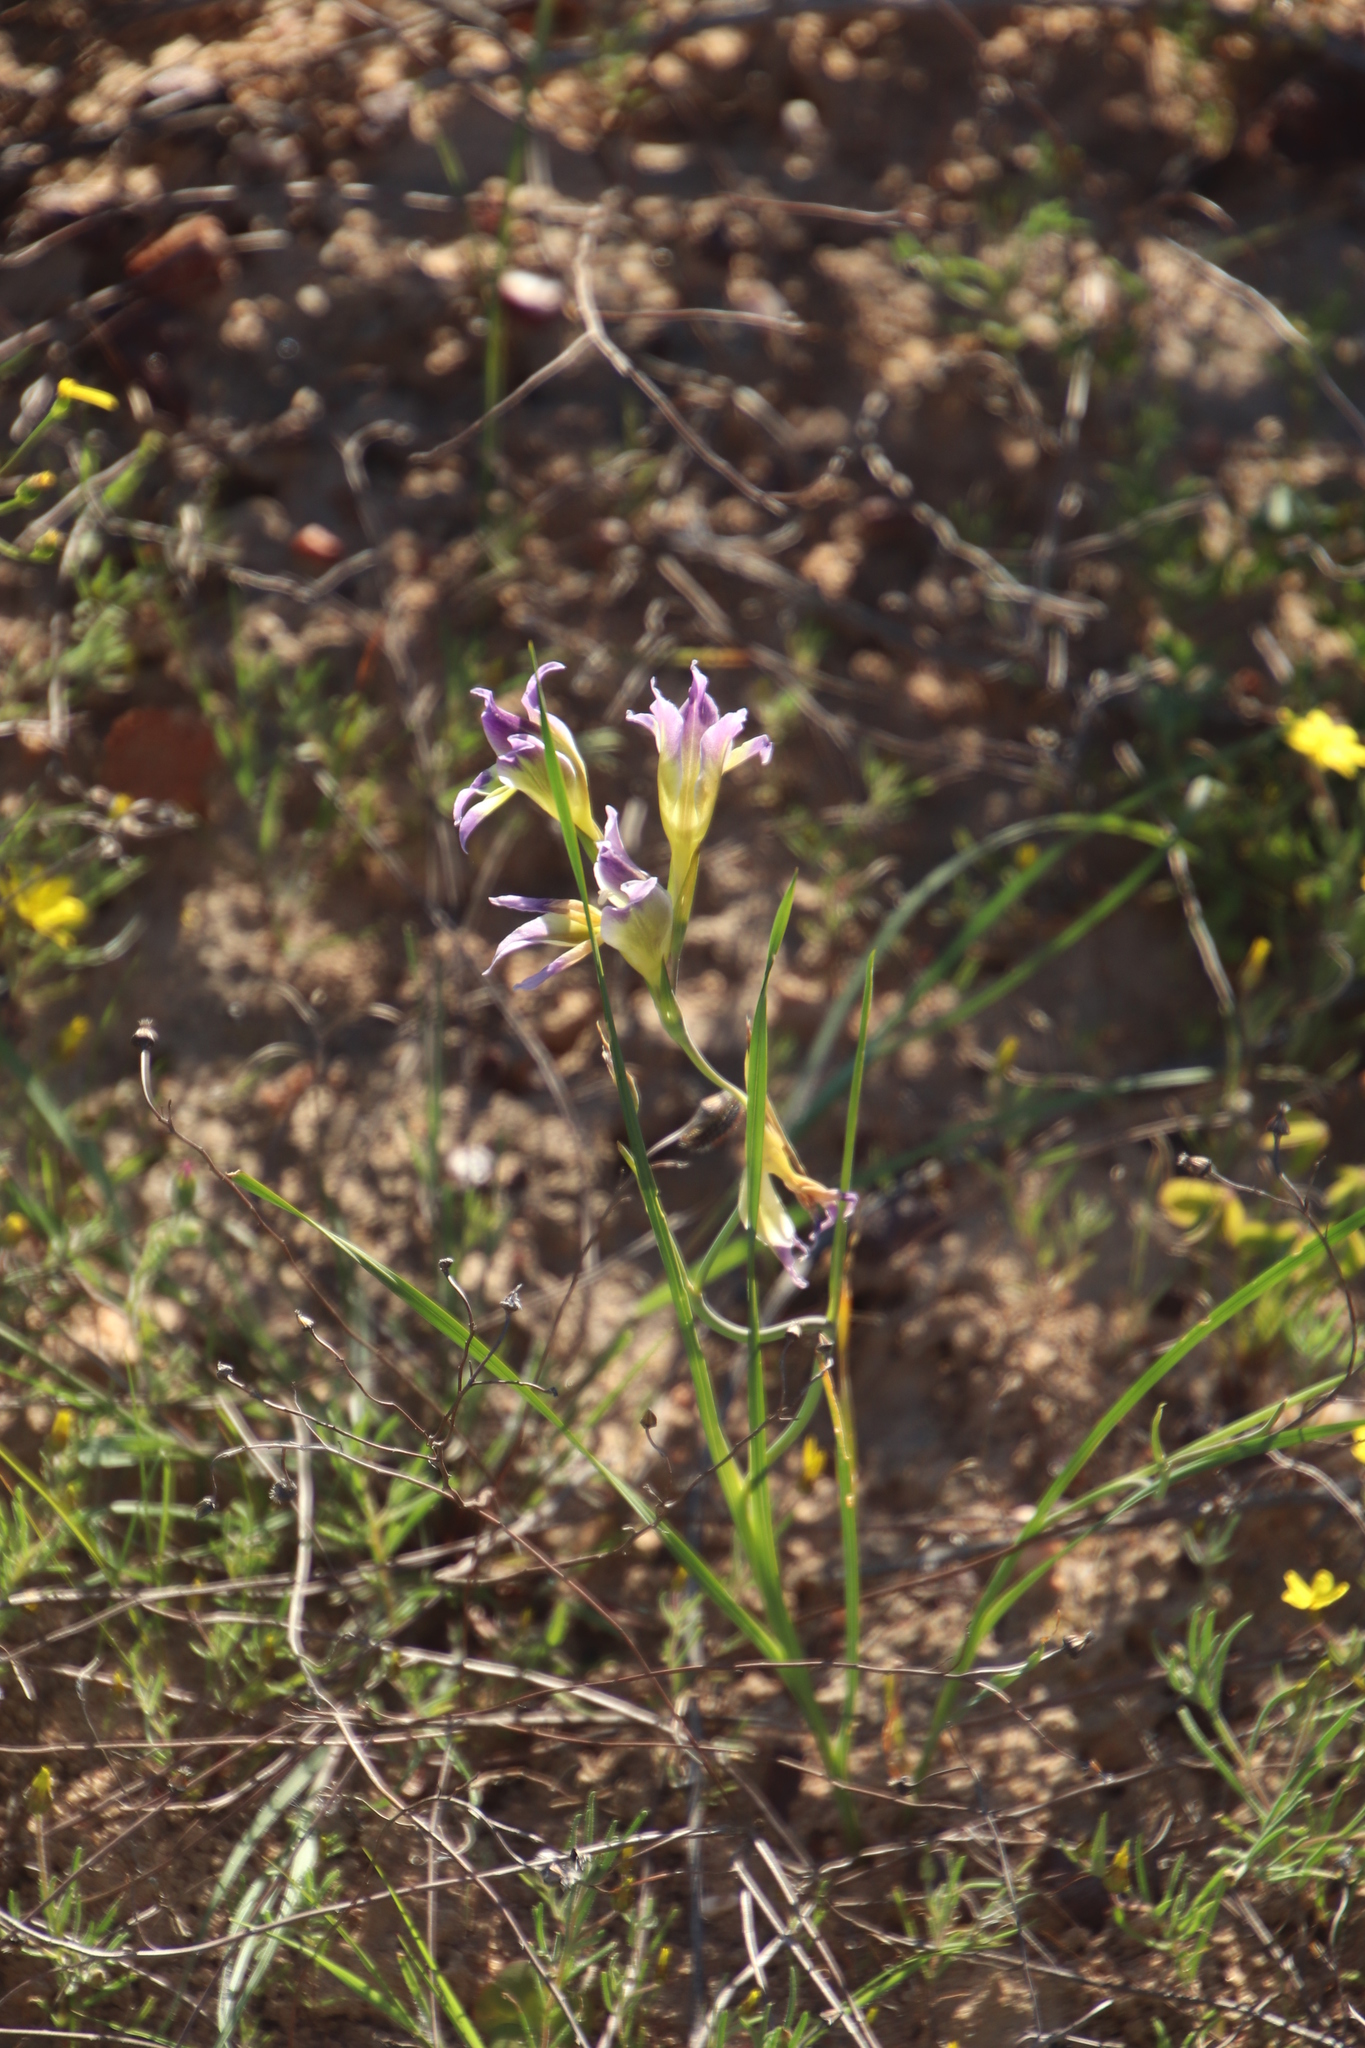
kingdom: Plantae
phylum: Tracheophyta
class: Liliopsida
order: Asparagales
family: Iridaceae
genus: Gladiolus
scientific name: Gladiolus venustus
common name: Purple kalkoentjie
